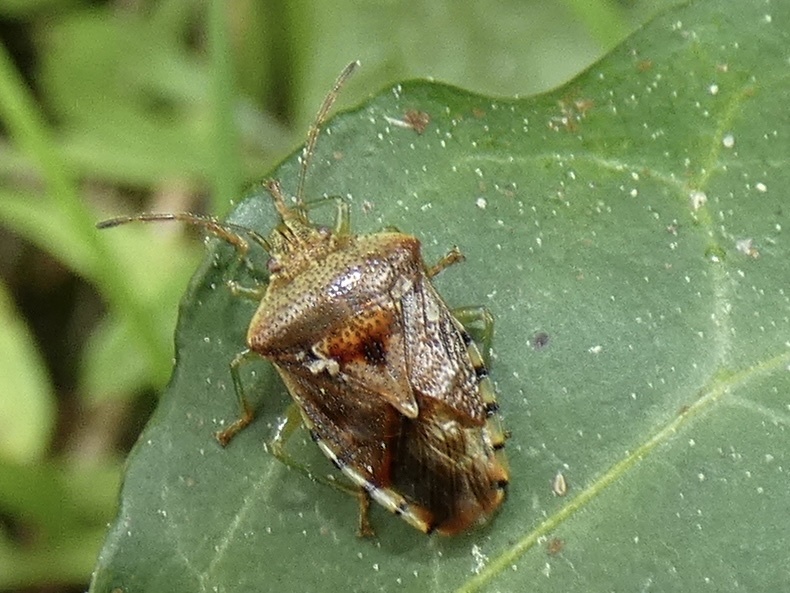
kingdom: Animalia
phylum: Arthropoda
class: Insecta
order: Hemiptera
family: Acanthosomatidae
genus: Elasmucha
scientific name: Elasmucha grisea
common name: Parent bug
